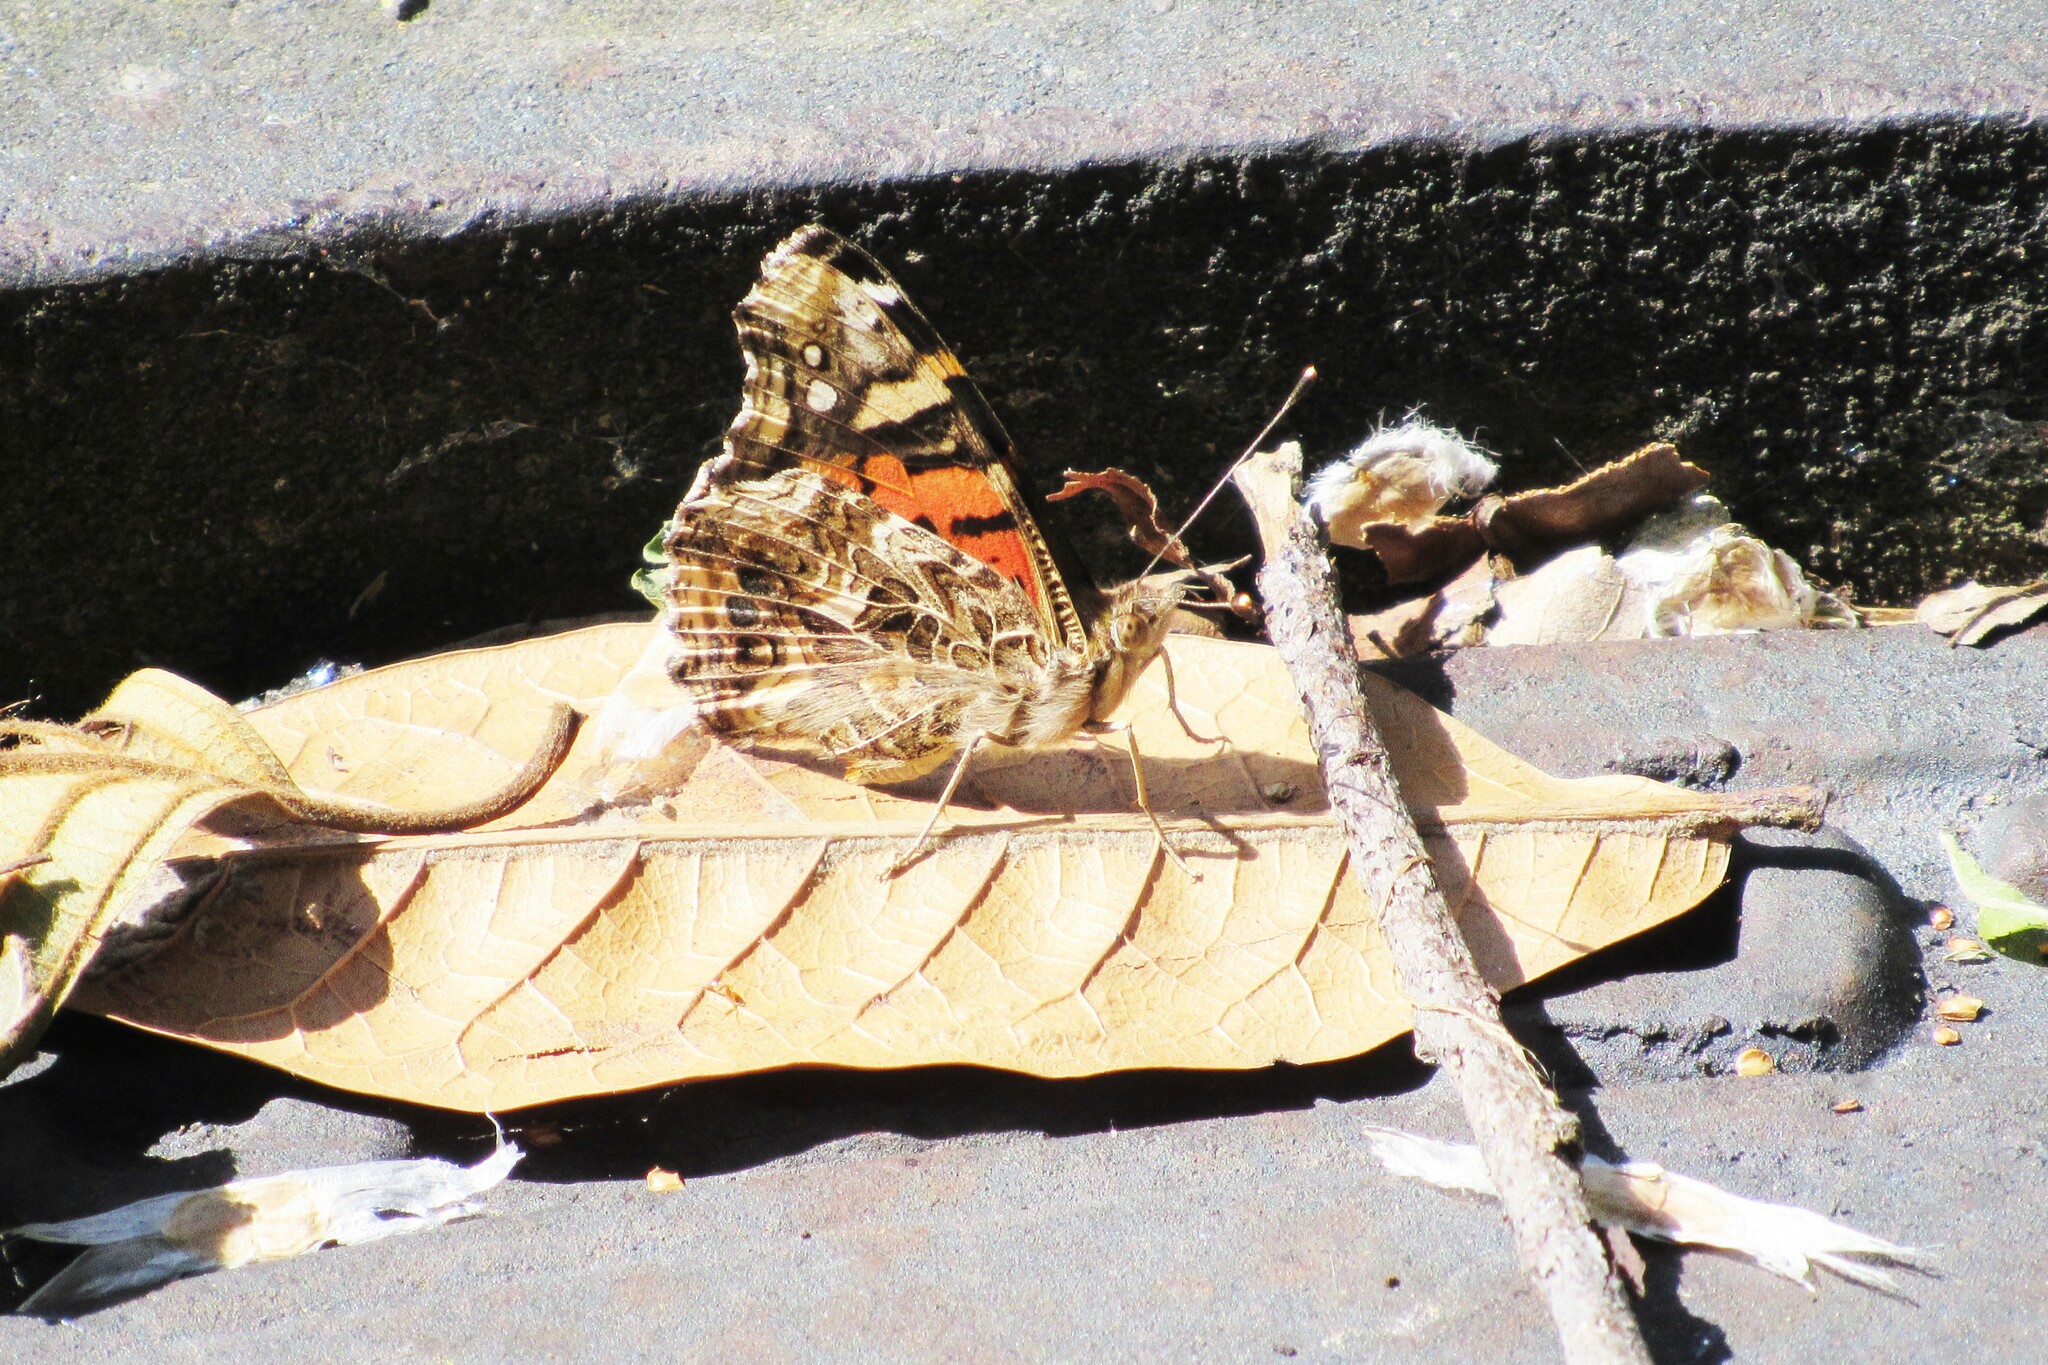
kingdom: Animalia
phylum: Arthropoda
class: Insecta
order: Lepidoptera
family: Nymphalidae
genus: Vanessa
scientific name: Vanessa carye
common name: Subtropical lady
